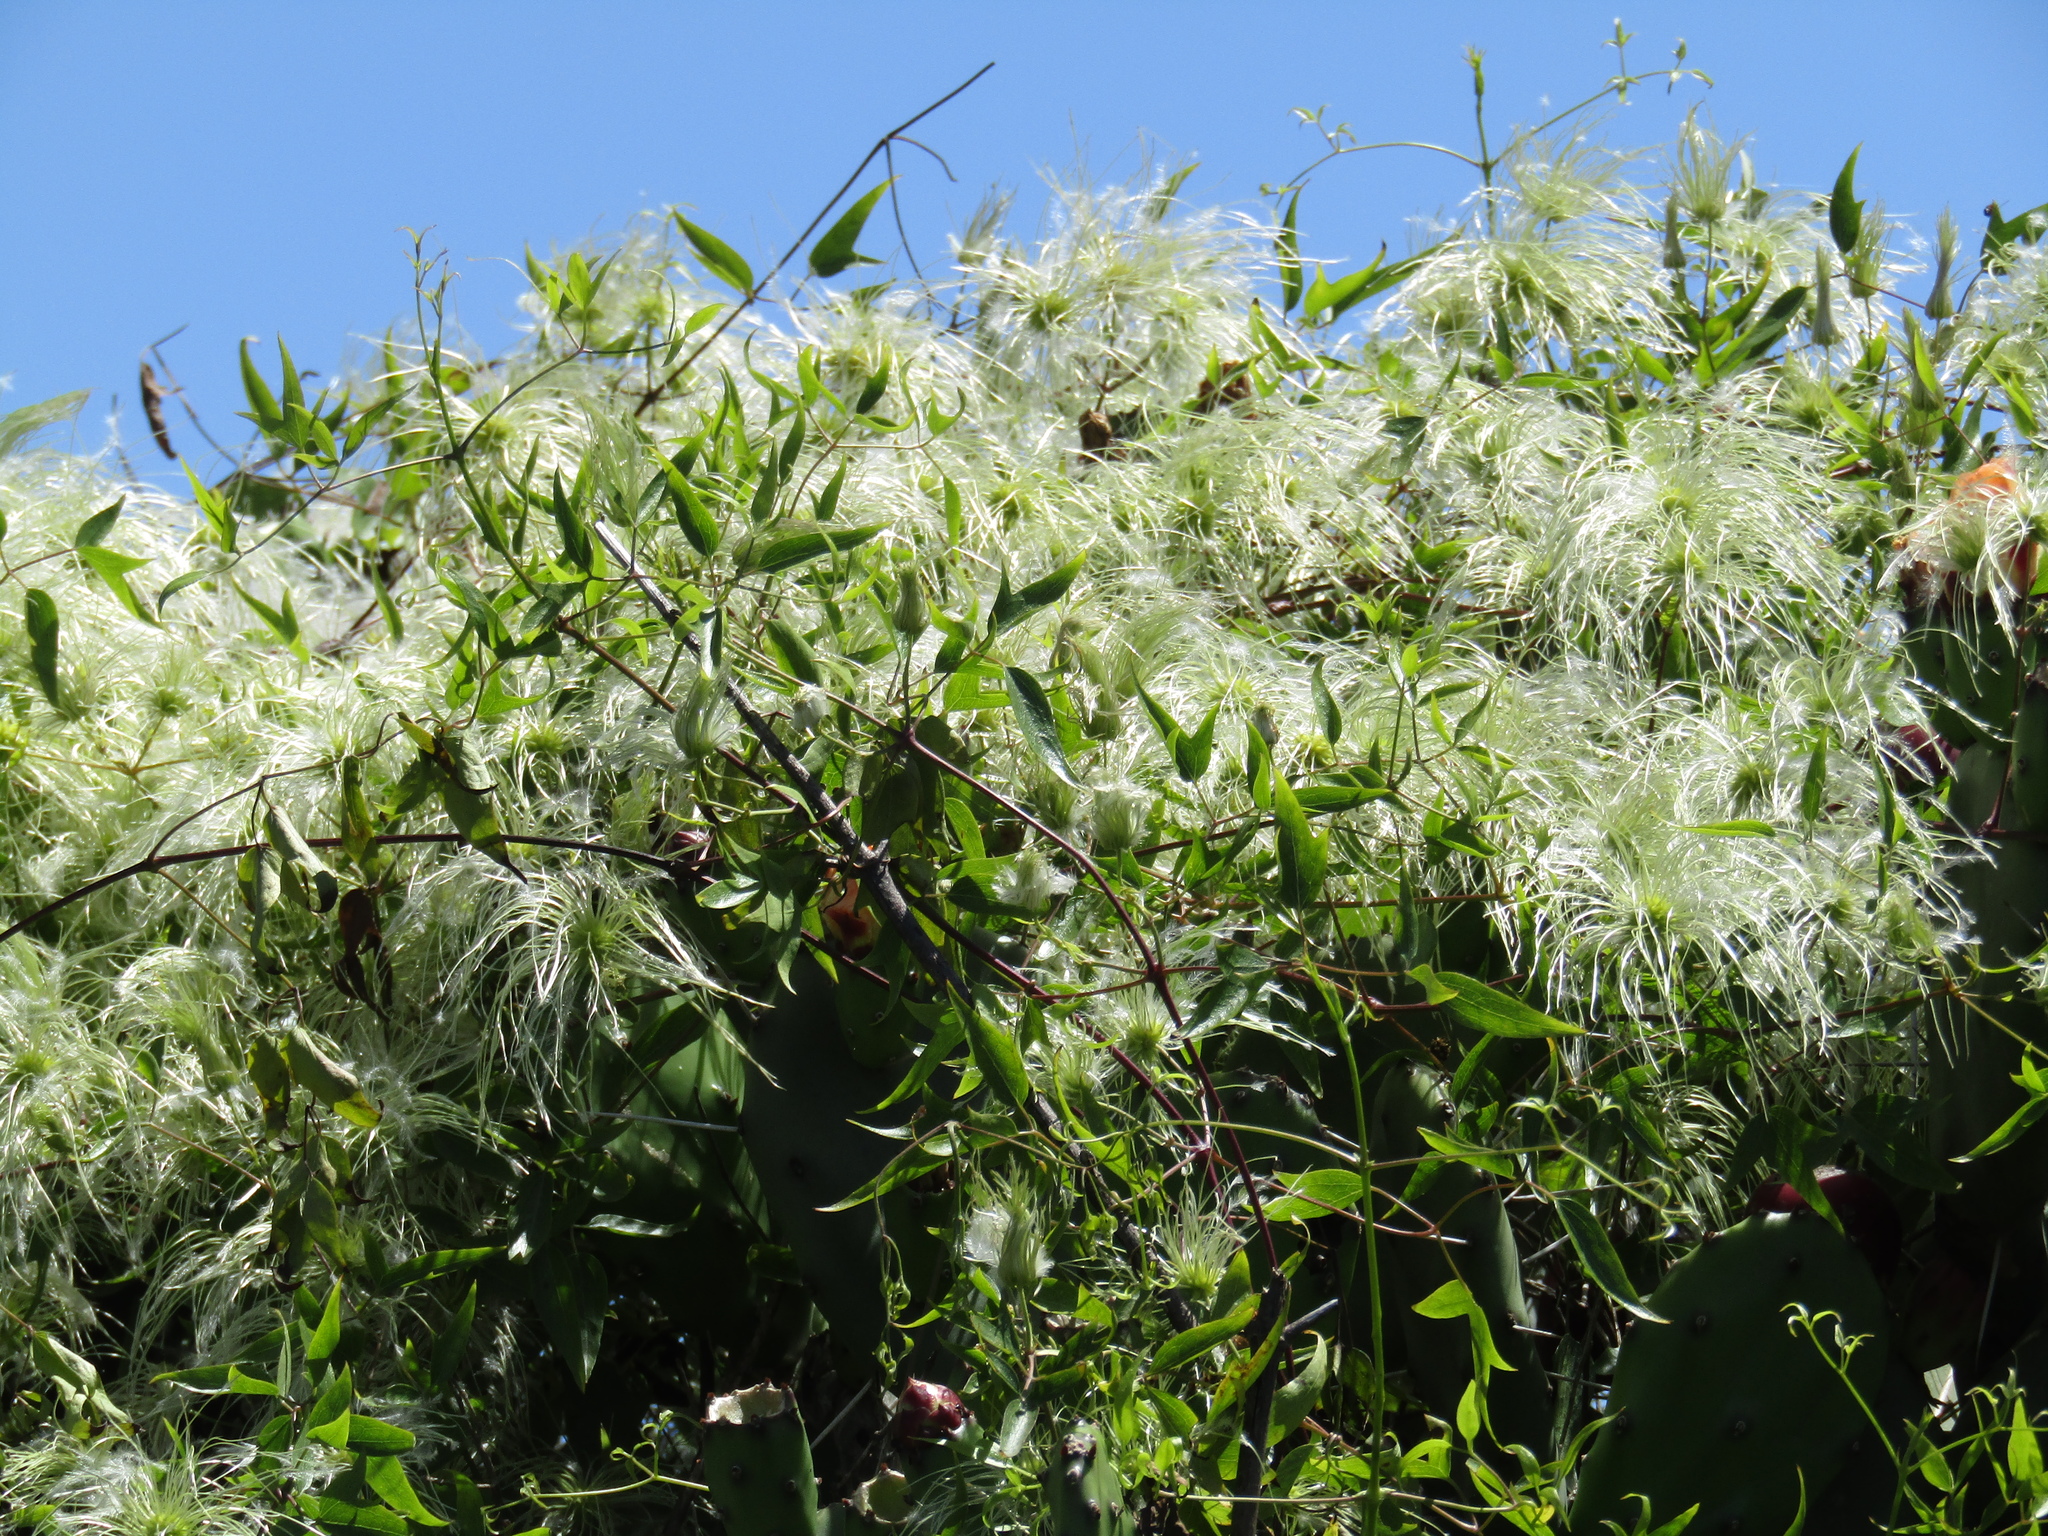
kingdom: Plantae
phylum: Tracheophyta
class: Magnoliopsida
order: Ranunculales
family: Ranunculaceae
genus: Clematis
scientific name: Clematis montevidensis
